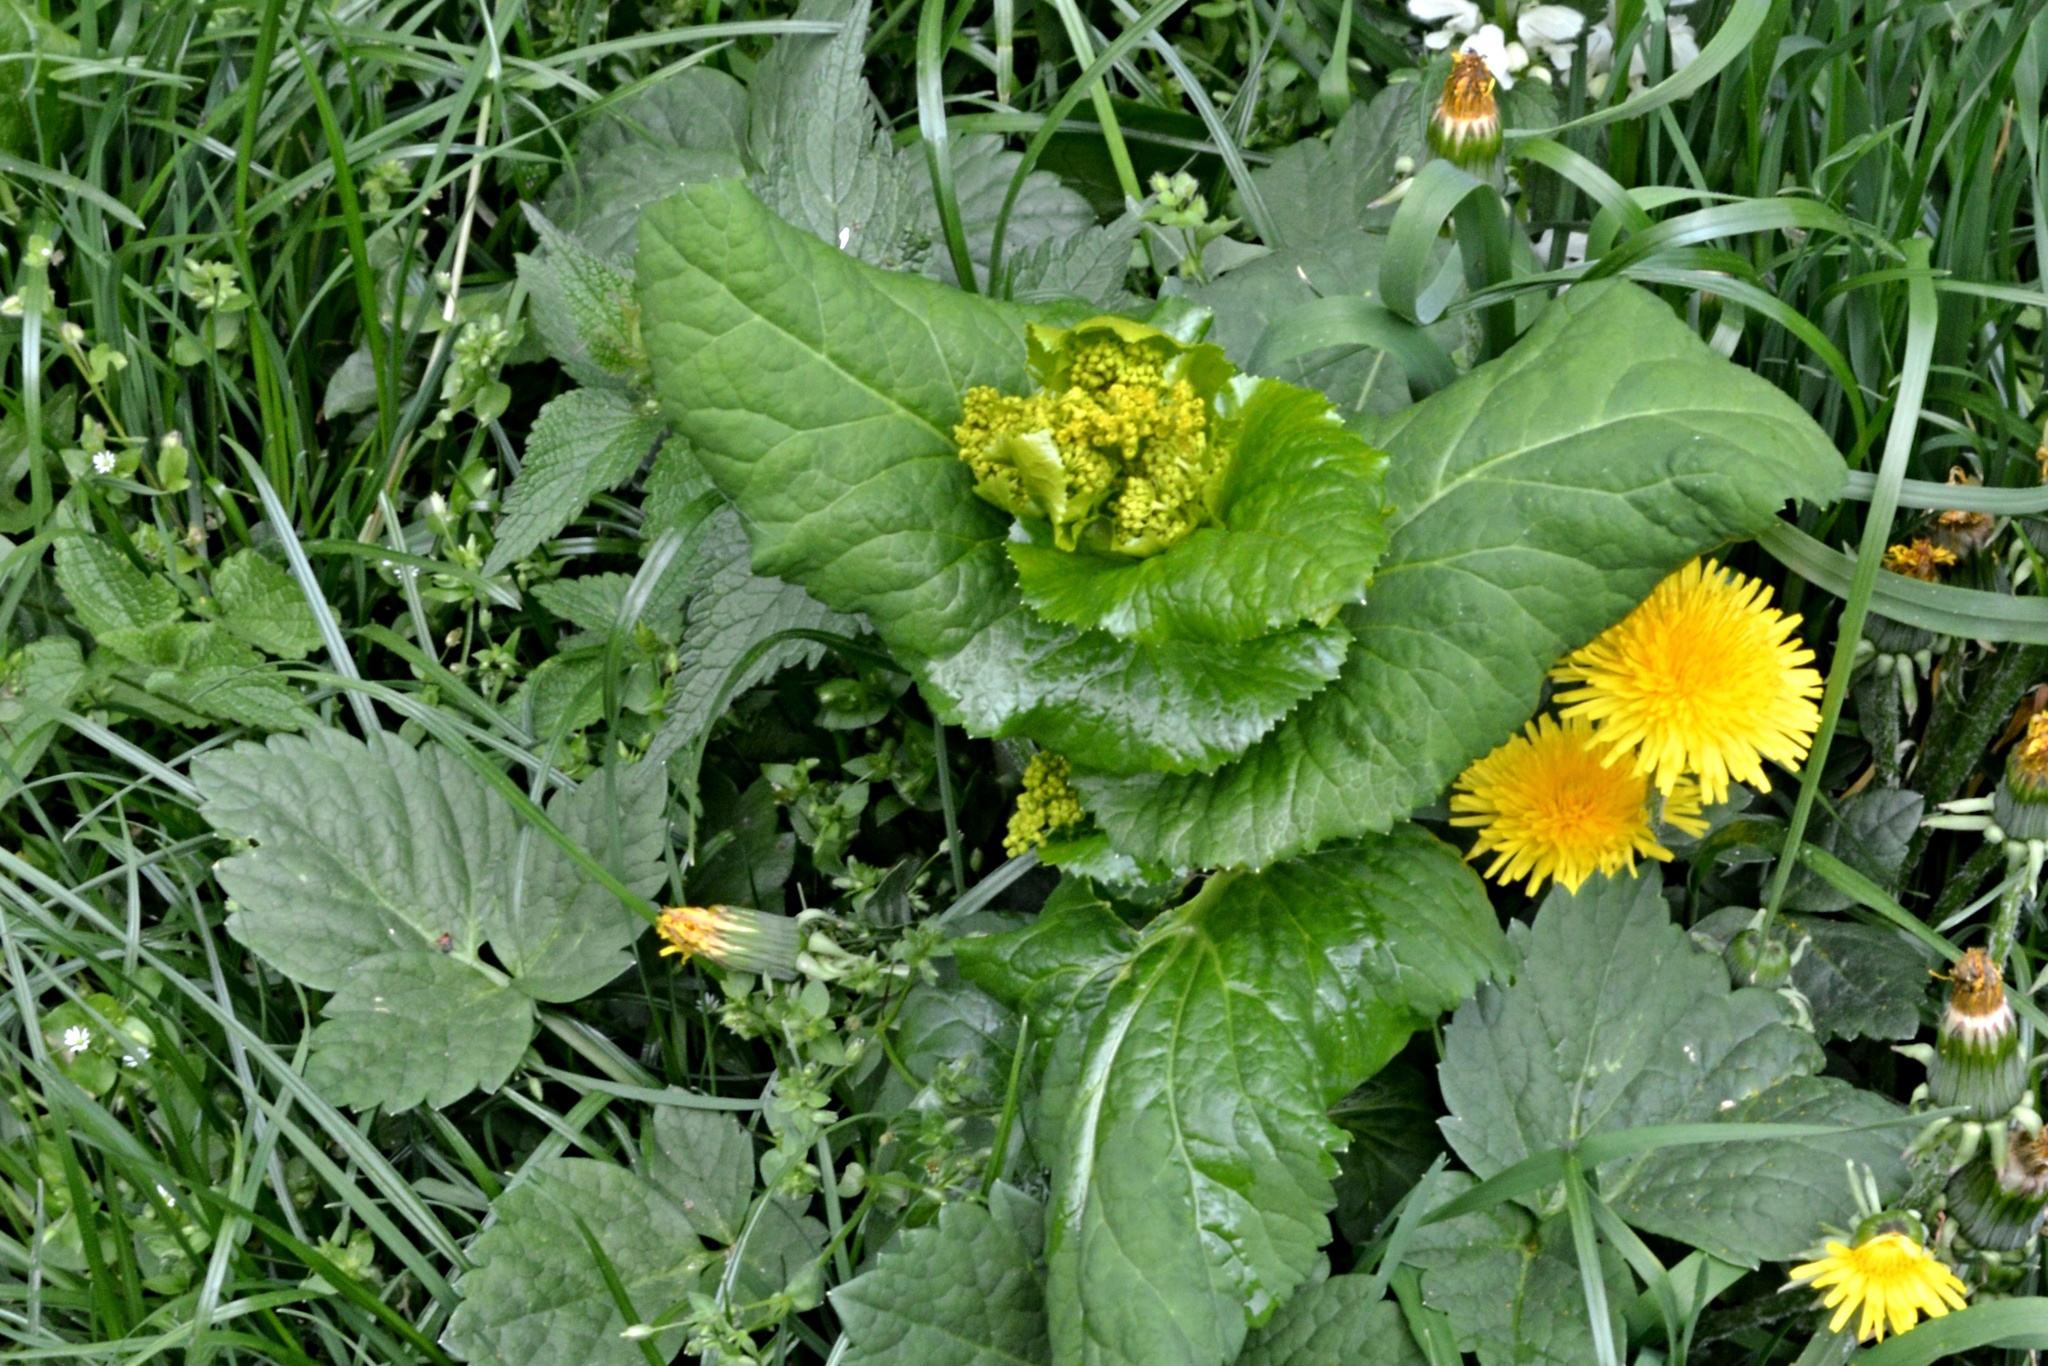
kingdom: Plantae
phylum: Tracheophyta
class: Magnoliopsida
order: Apiales
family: Apiaceae
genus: Smyrnium
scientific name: Smyrnium perfoliatum
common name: Perfoliate alexanders
